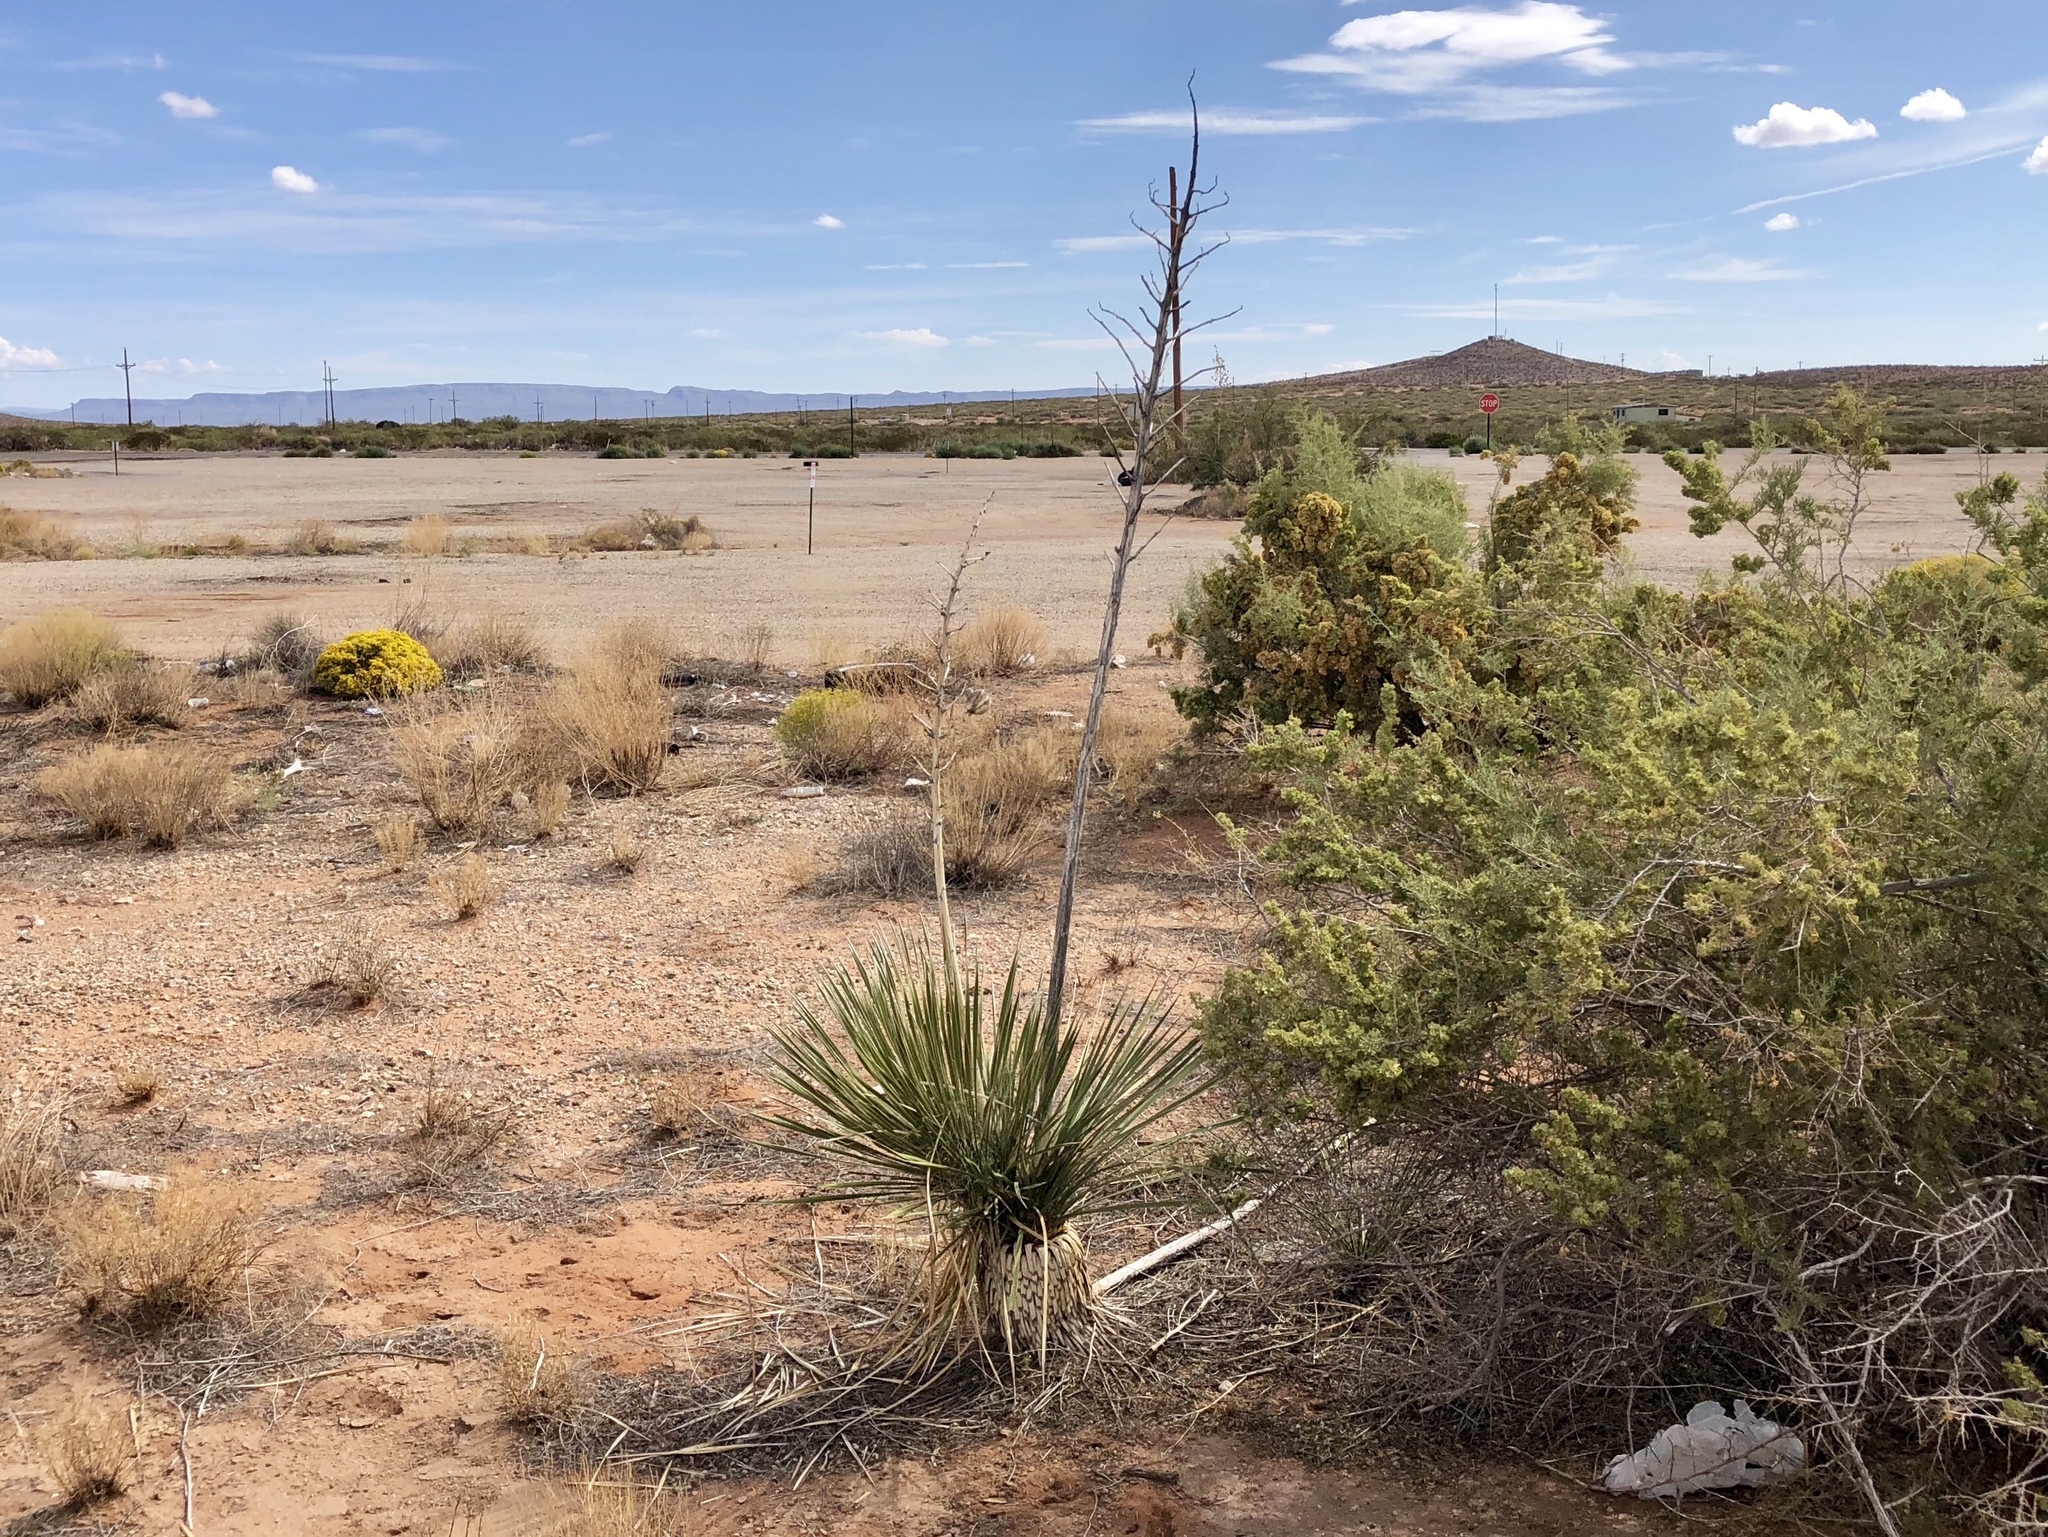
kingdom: Plantae
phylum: Tracheophyta
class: Liliopsida
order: Asparagales
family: Asparagaceae
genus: Yucca
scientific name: Yucca elata
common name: Palmella
